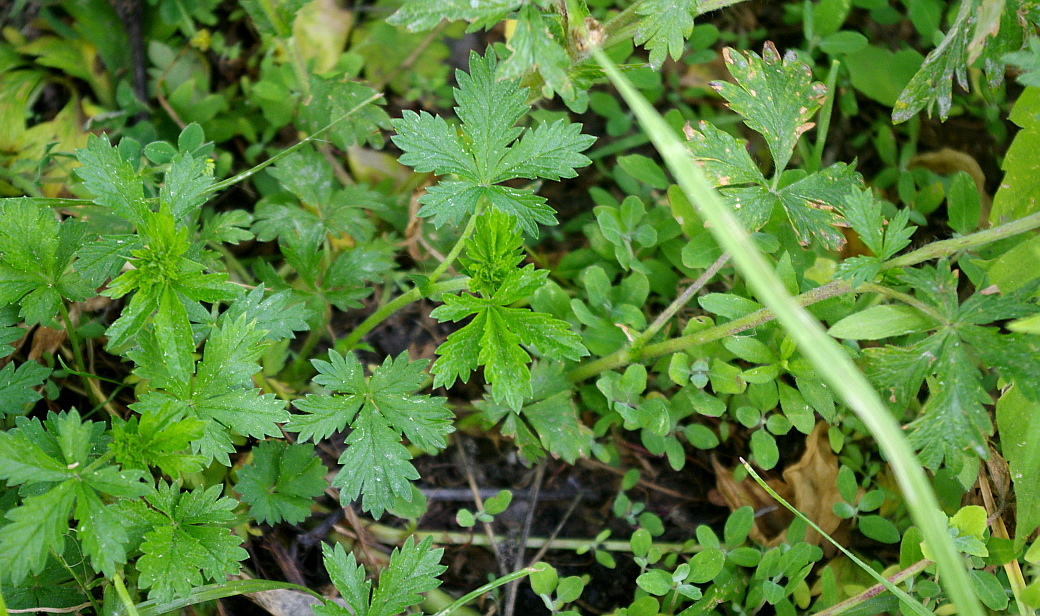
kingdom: Plantae
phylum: Tracheophyta
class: Magnoliopsida
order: Rosales
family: Rosaceae
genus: Potentilla
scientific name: Potentilla intermedia
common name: Downy cinquefoil
